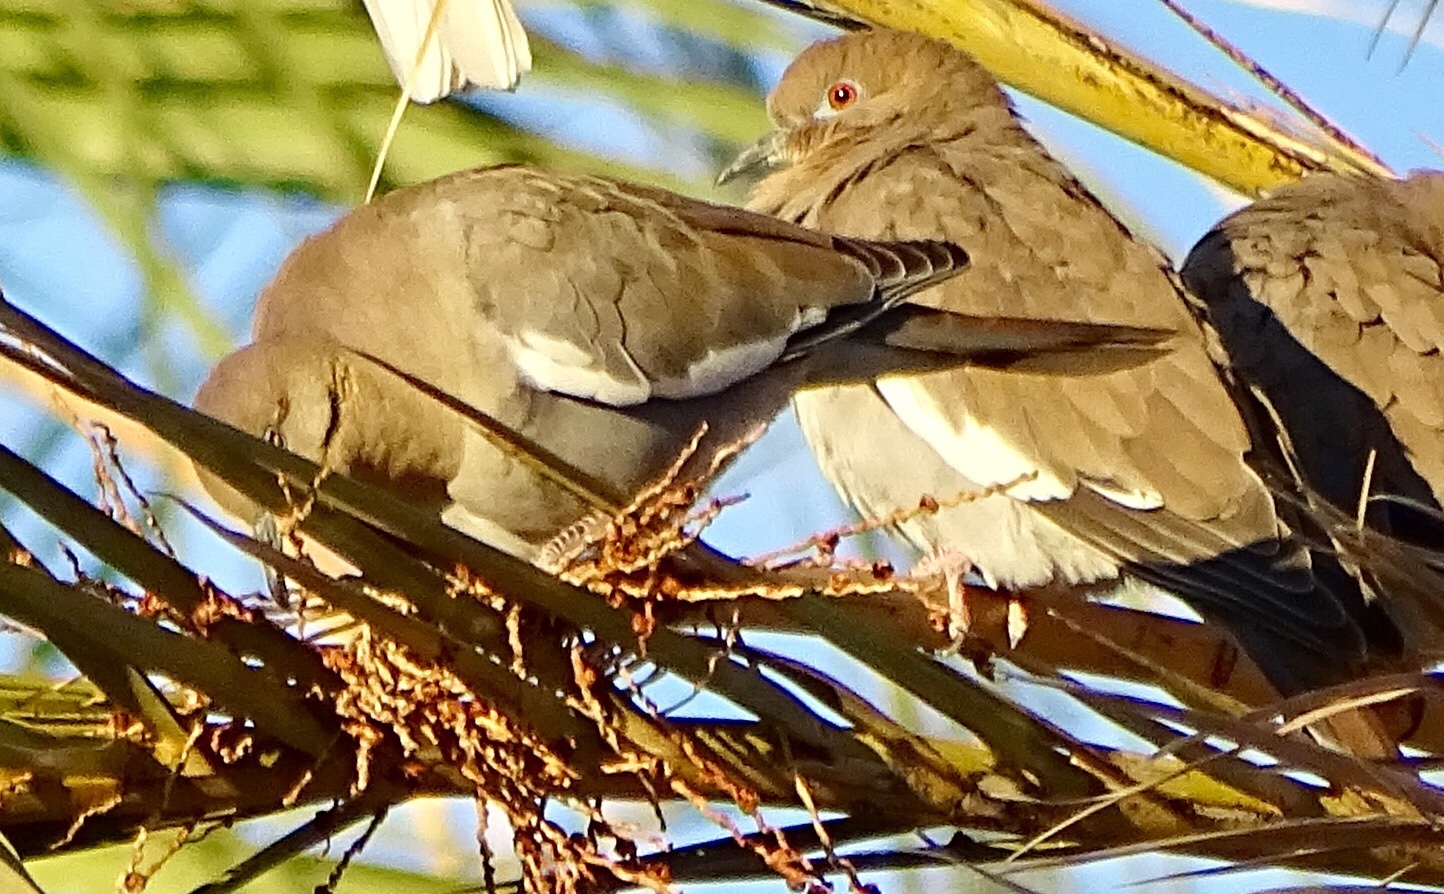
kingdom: Animalia
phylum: Chordata
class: Aves
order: Columbiformes
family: Columbidae
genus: Zenaida
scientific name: Zenaida asiatica
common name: White-winged dove
